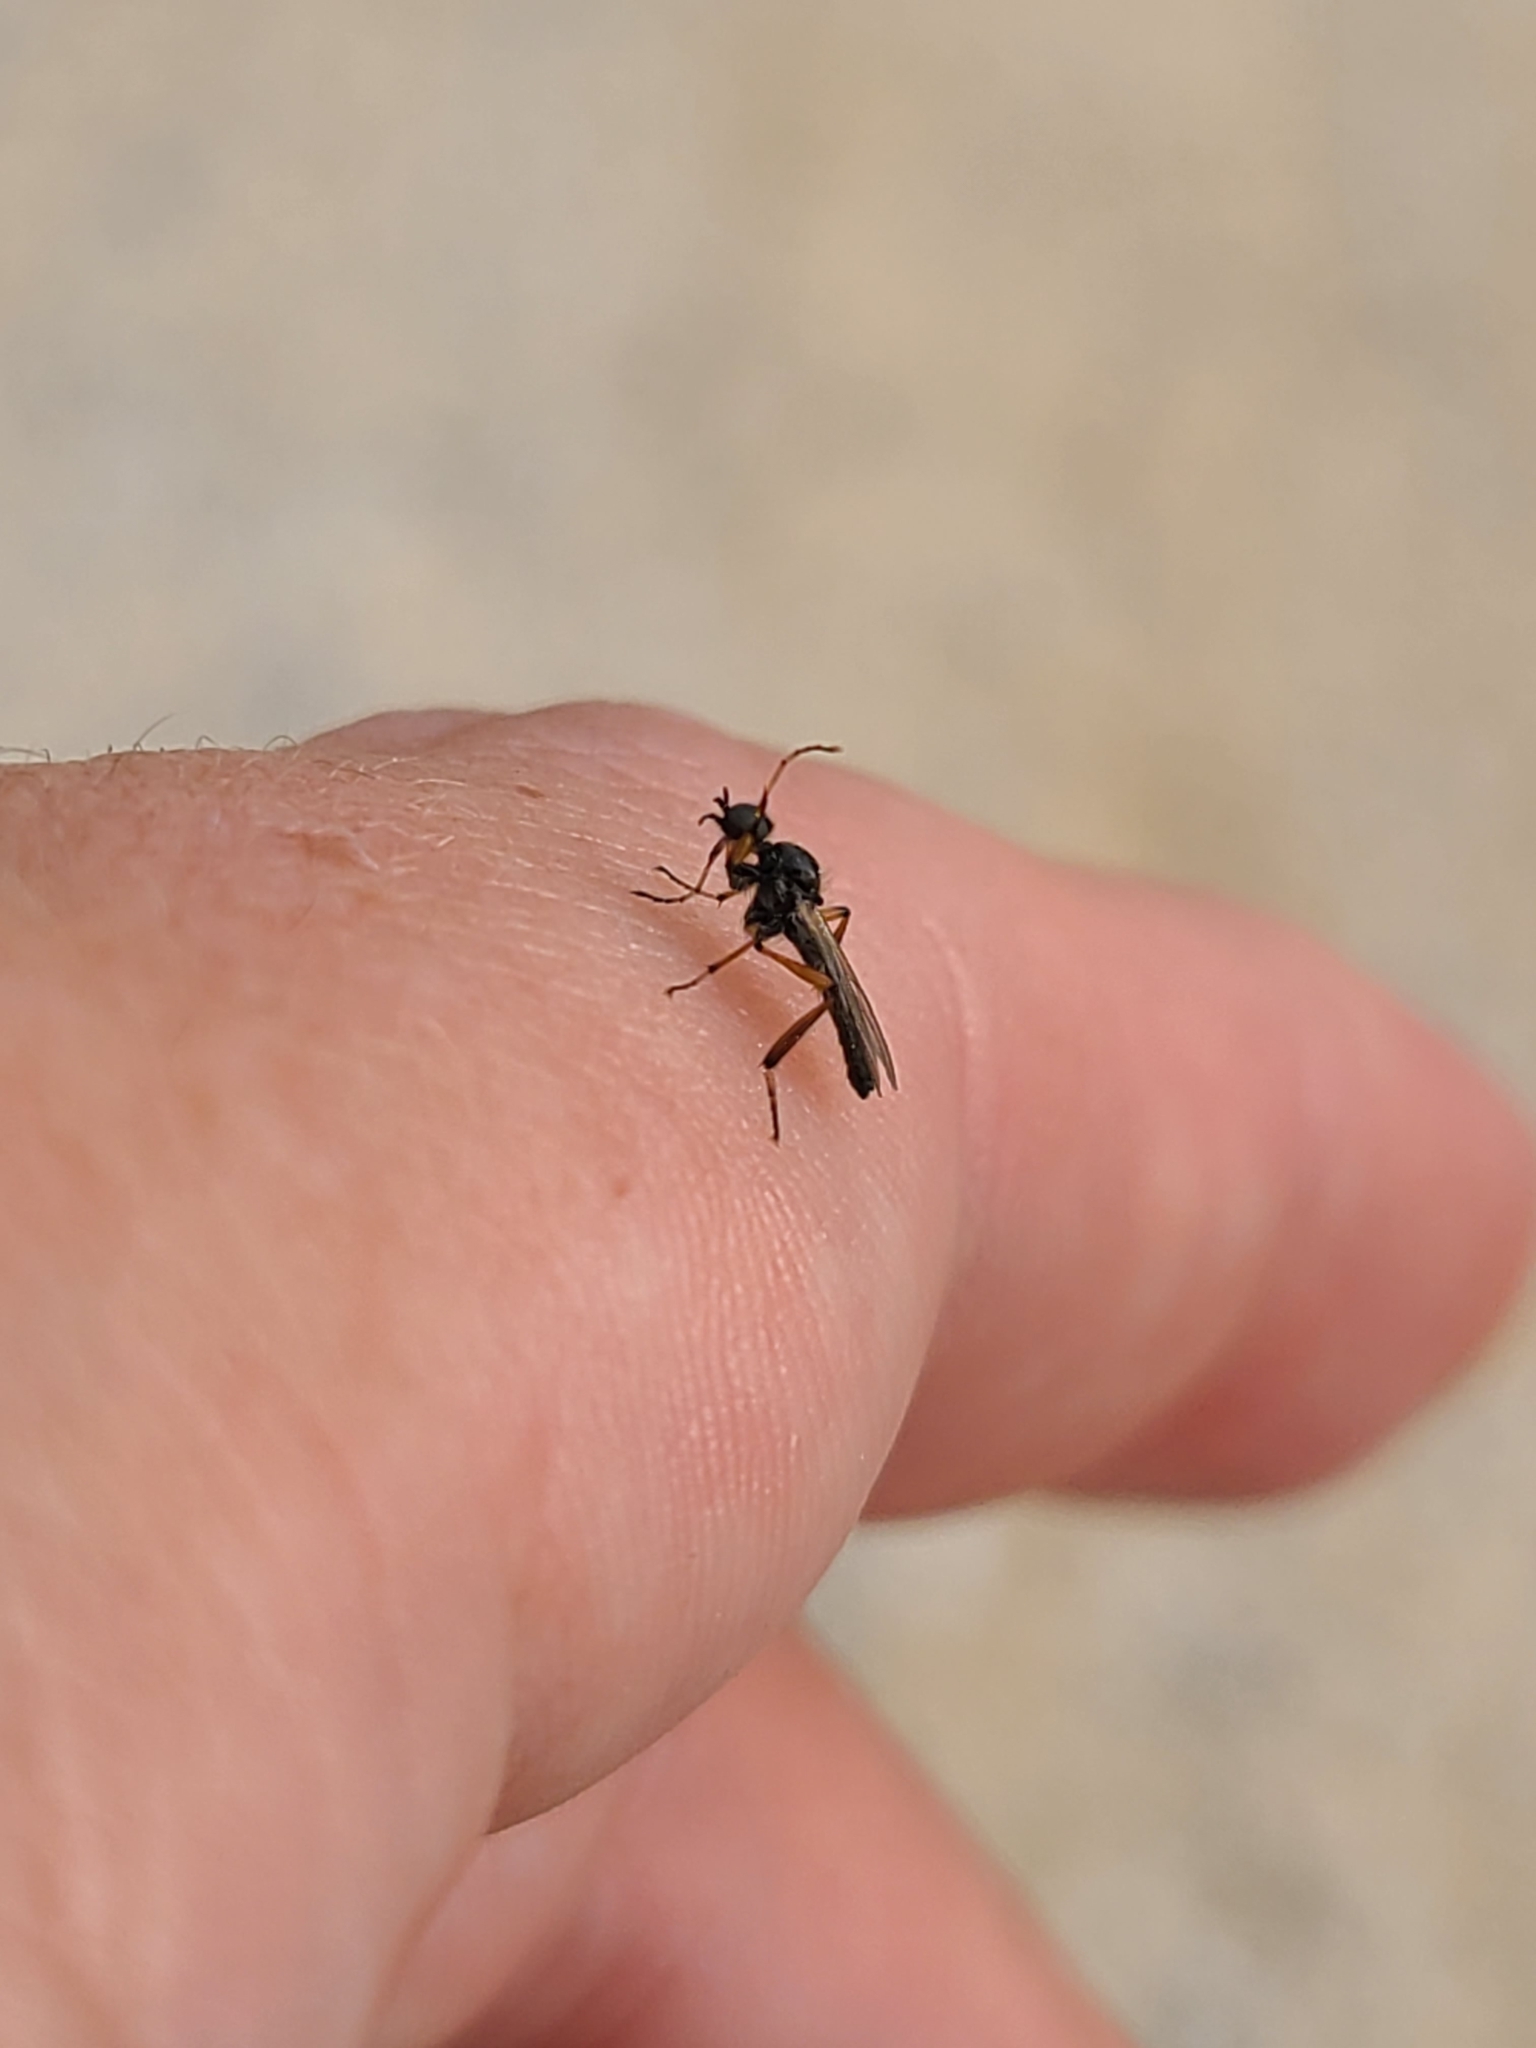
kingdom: Animalia
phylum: Arthropoda
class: Insecta
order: Diptera
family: Bibionidae
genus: Bibio
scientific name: Bibio
